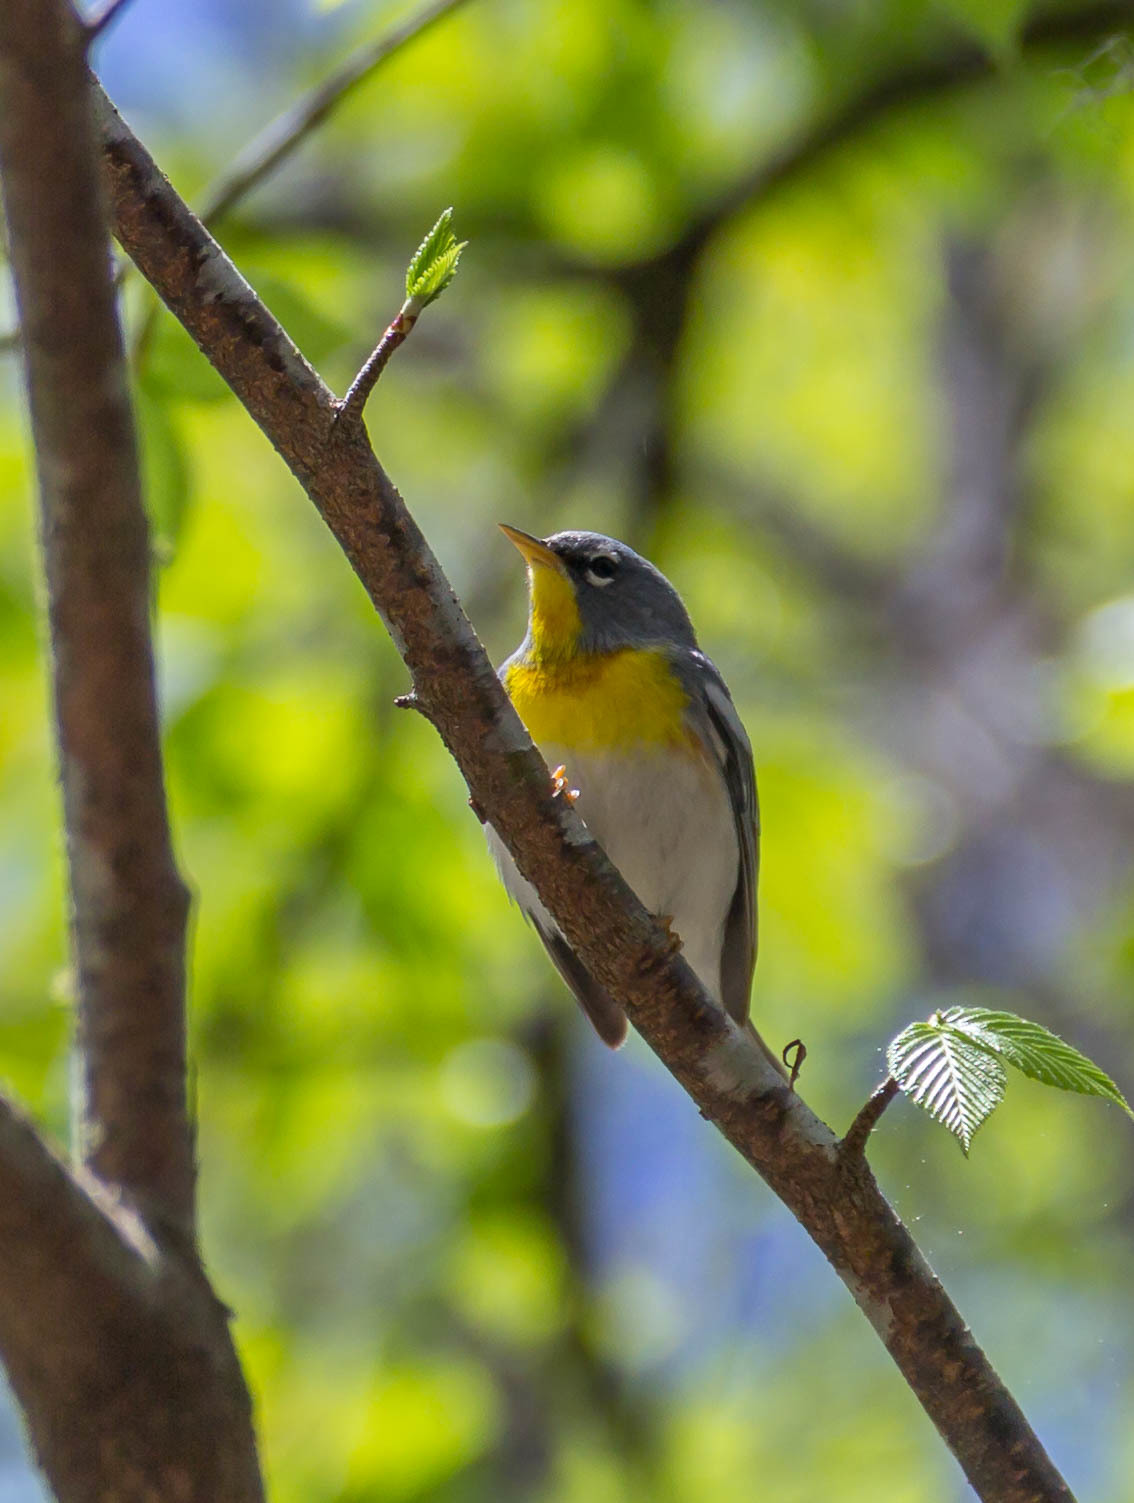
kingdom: Animalia
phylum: Chordata
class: Aves
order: Passeriformes
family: Parulidae
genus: Setophaga
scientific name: Setophaga americana
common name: Northern parula
